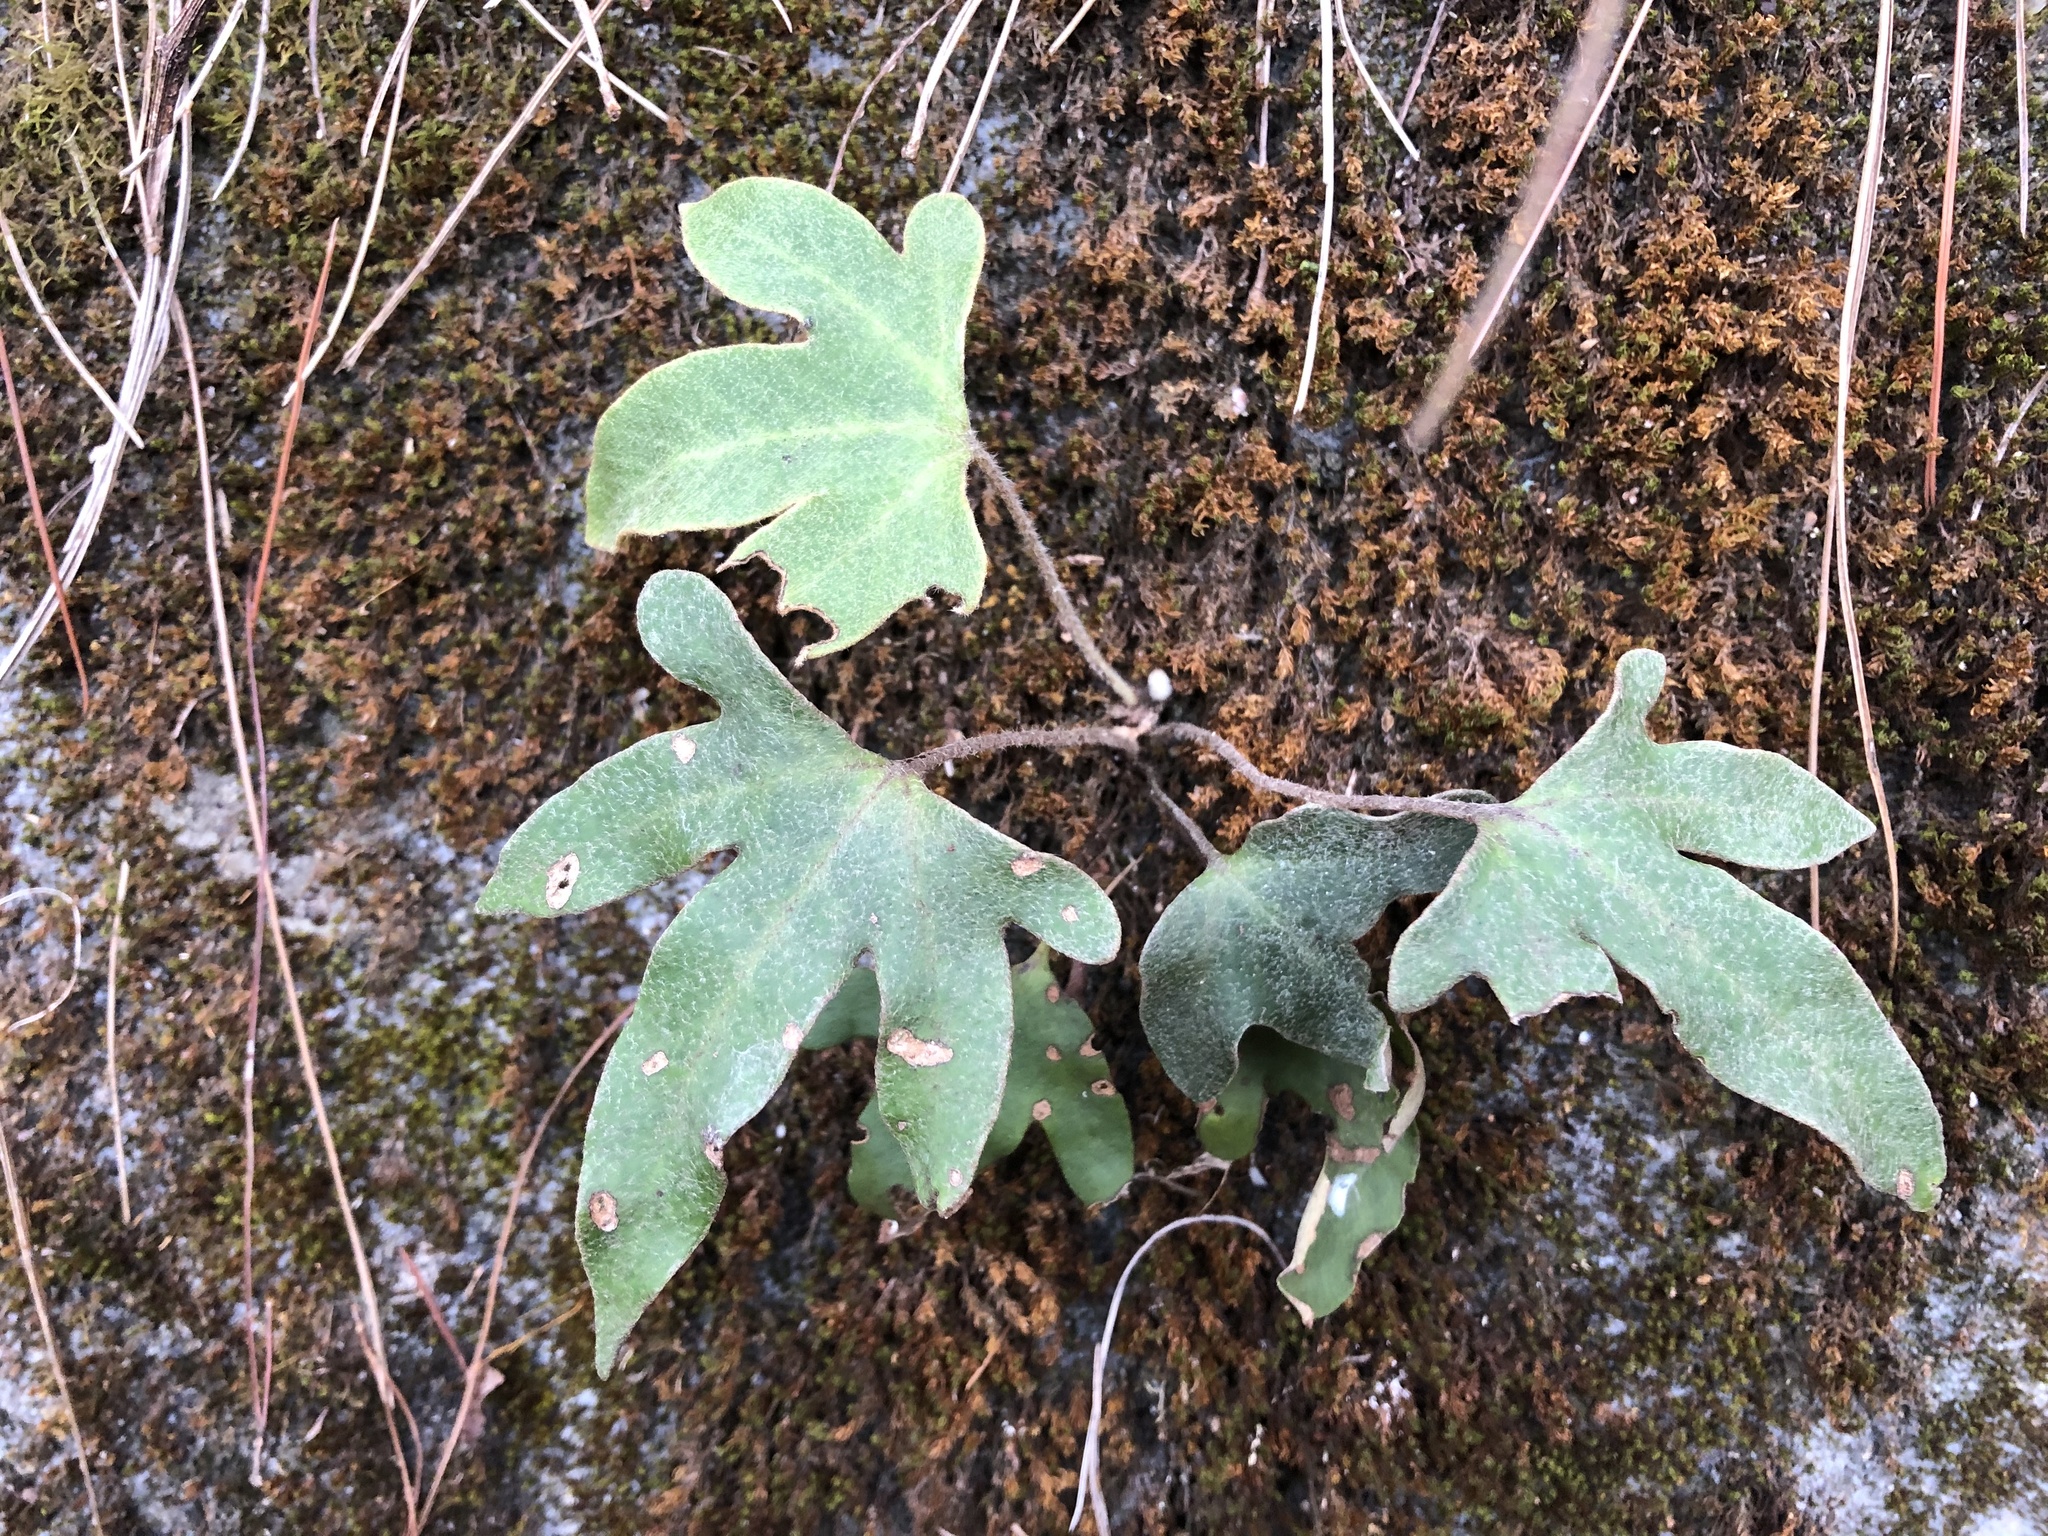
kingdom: Plantae
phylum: Tracheophyta
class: Polypodiopsida
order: Polypodiales
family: Polypodiaceae
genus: Pyrrosia
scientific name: Pyrrosia polydactyla
